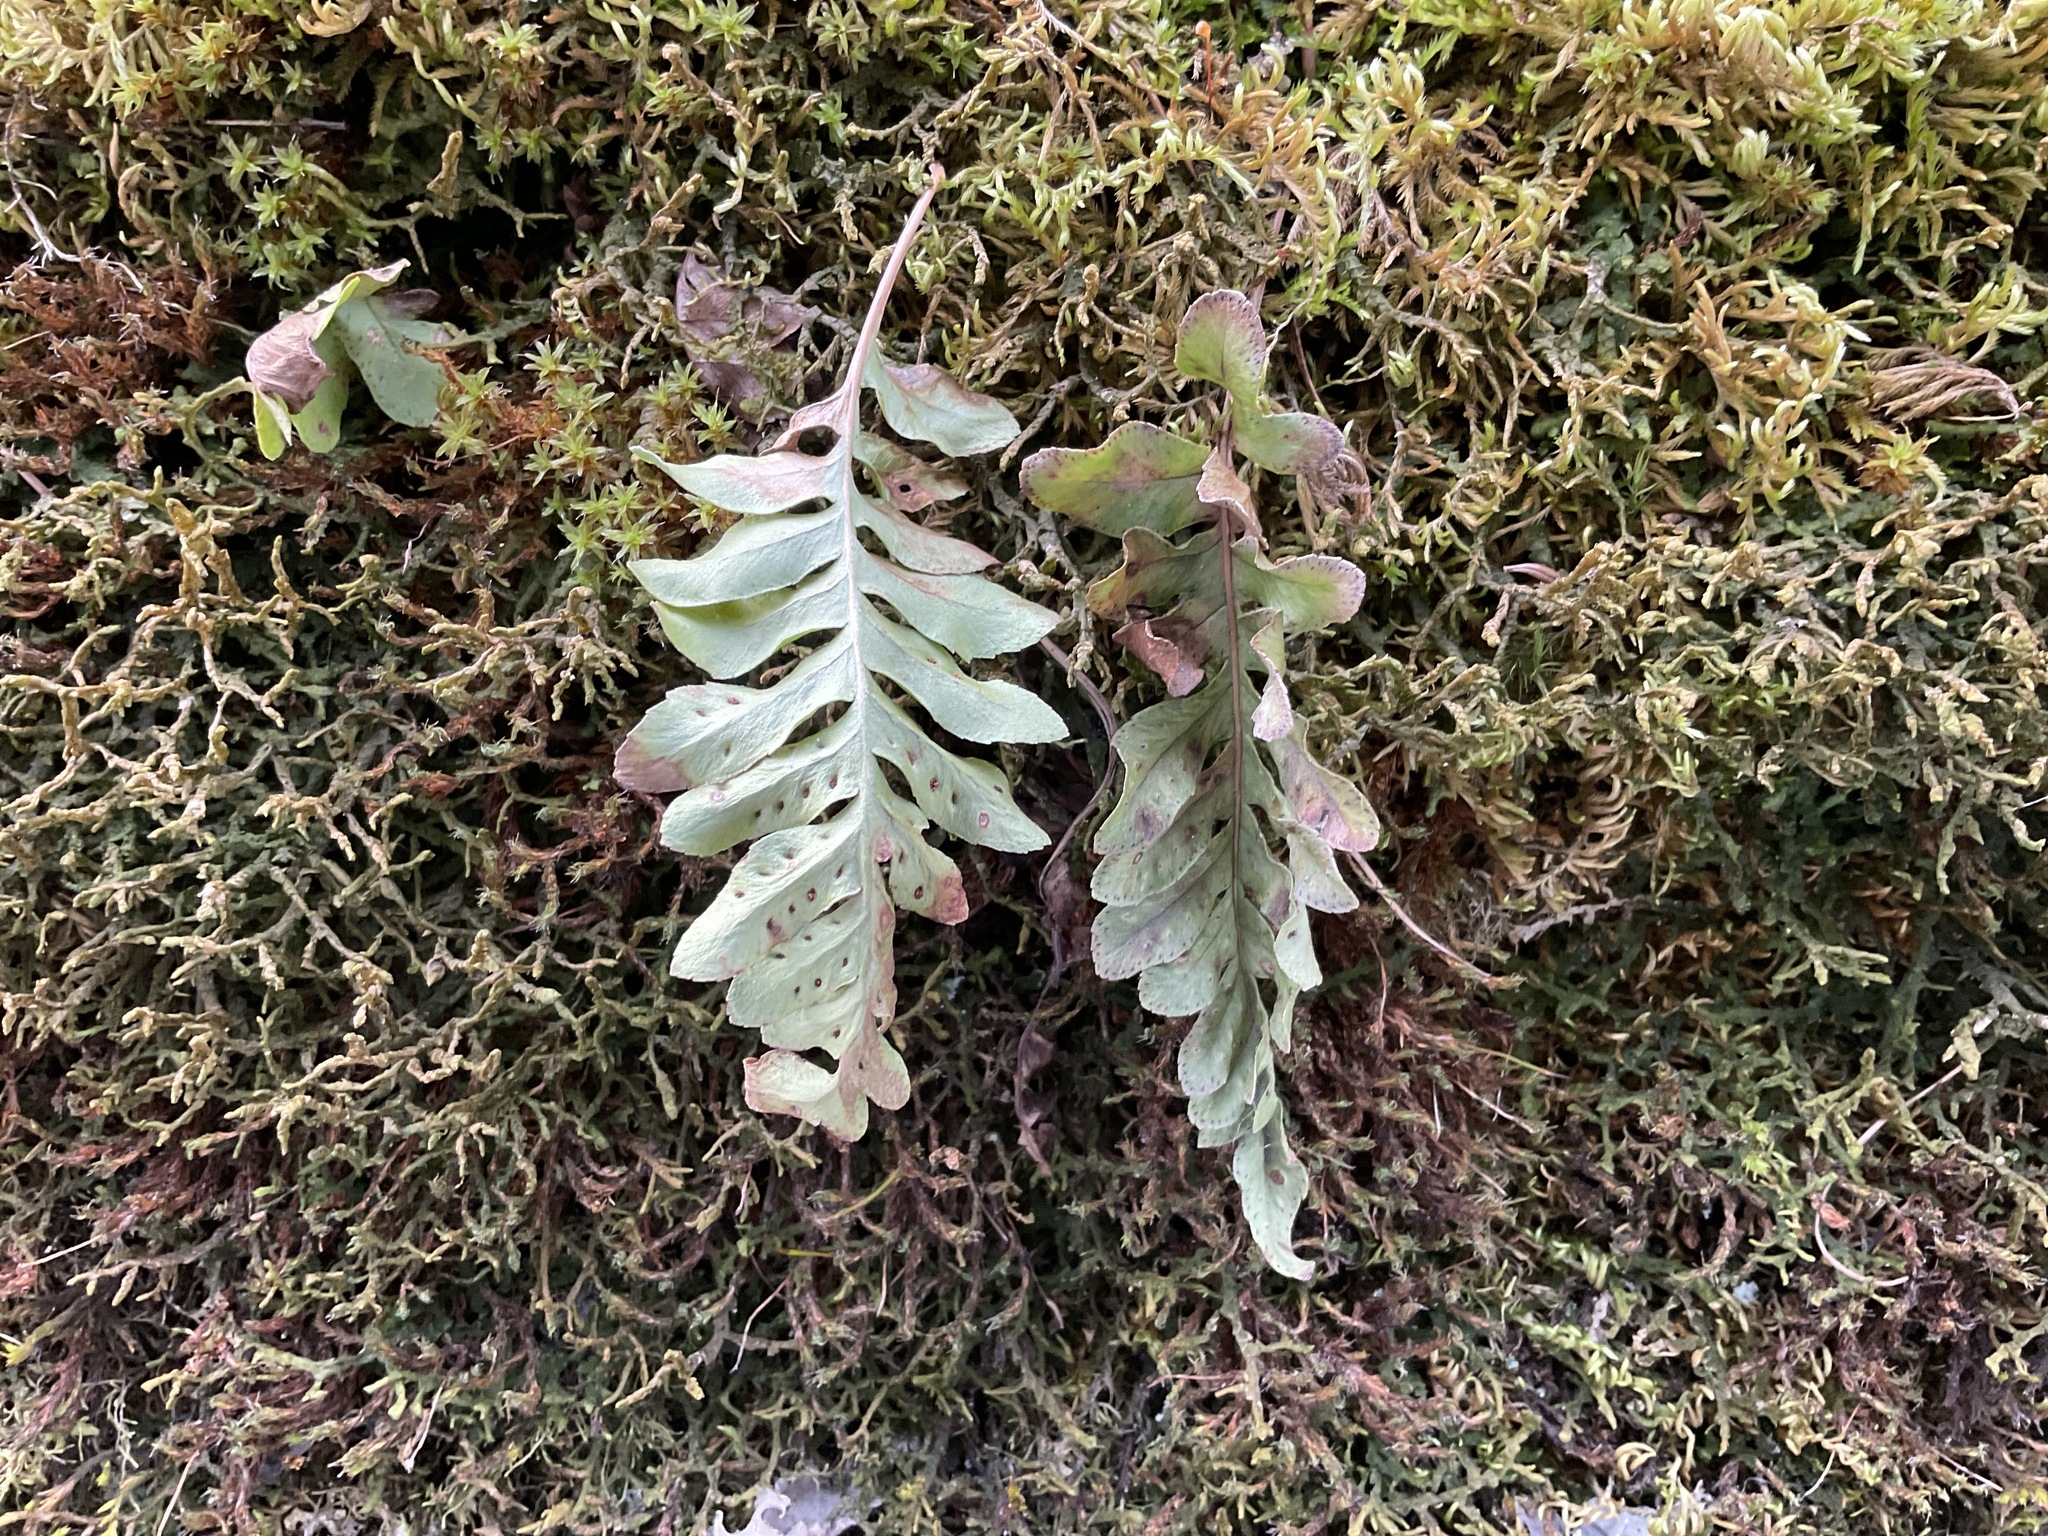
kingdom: Plantae
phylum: Tracheophyta
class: Polypodiopsida
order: Polypodiales
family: Polypodiaceae
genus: Polypodium
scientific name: Polypodium hesperium
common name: Western polypody
